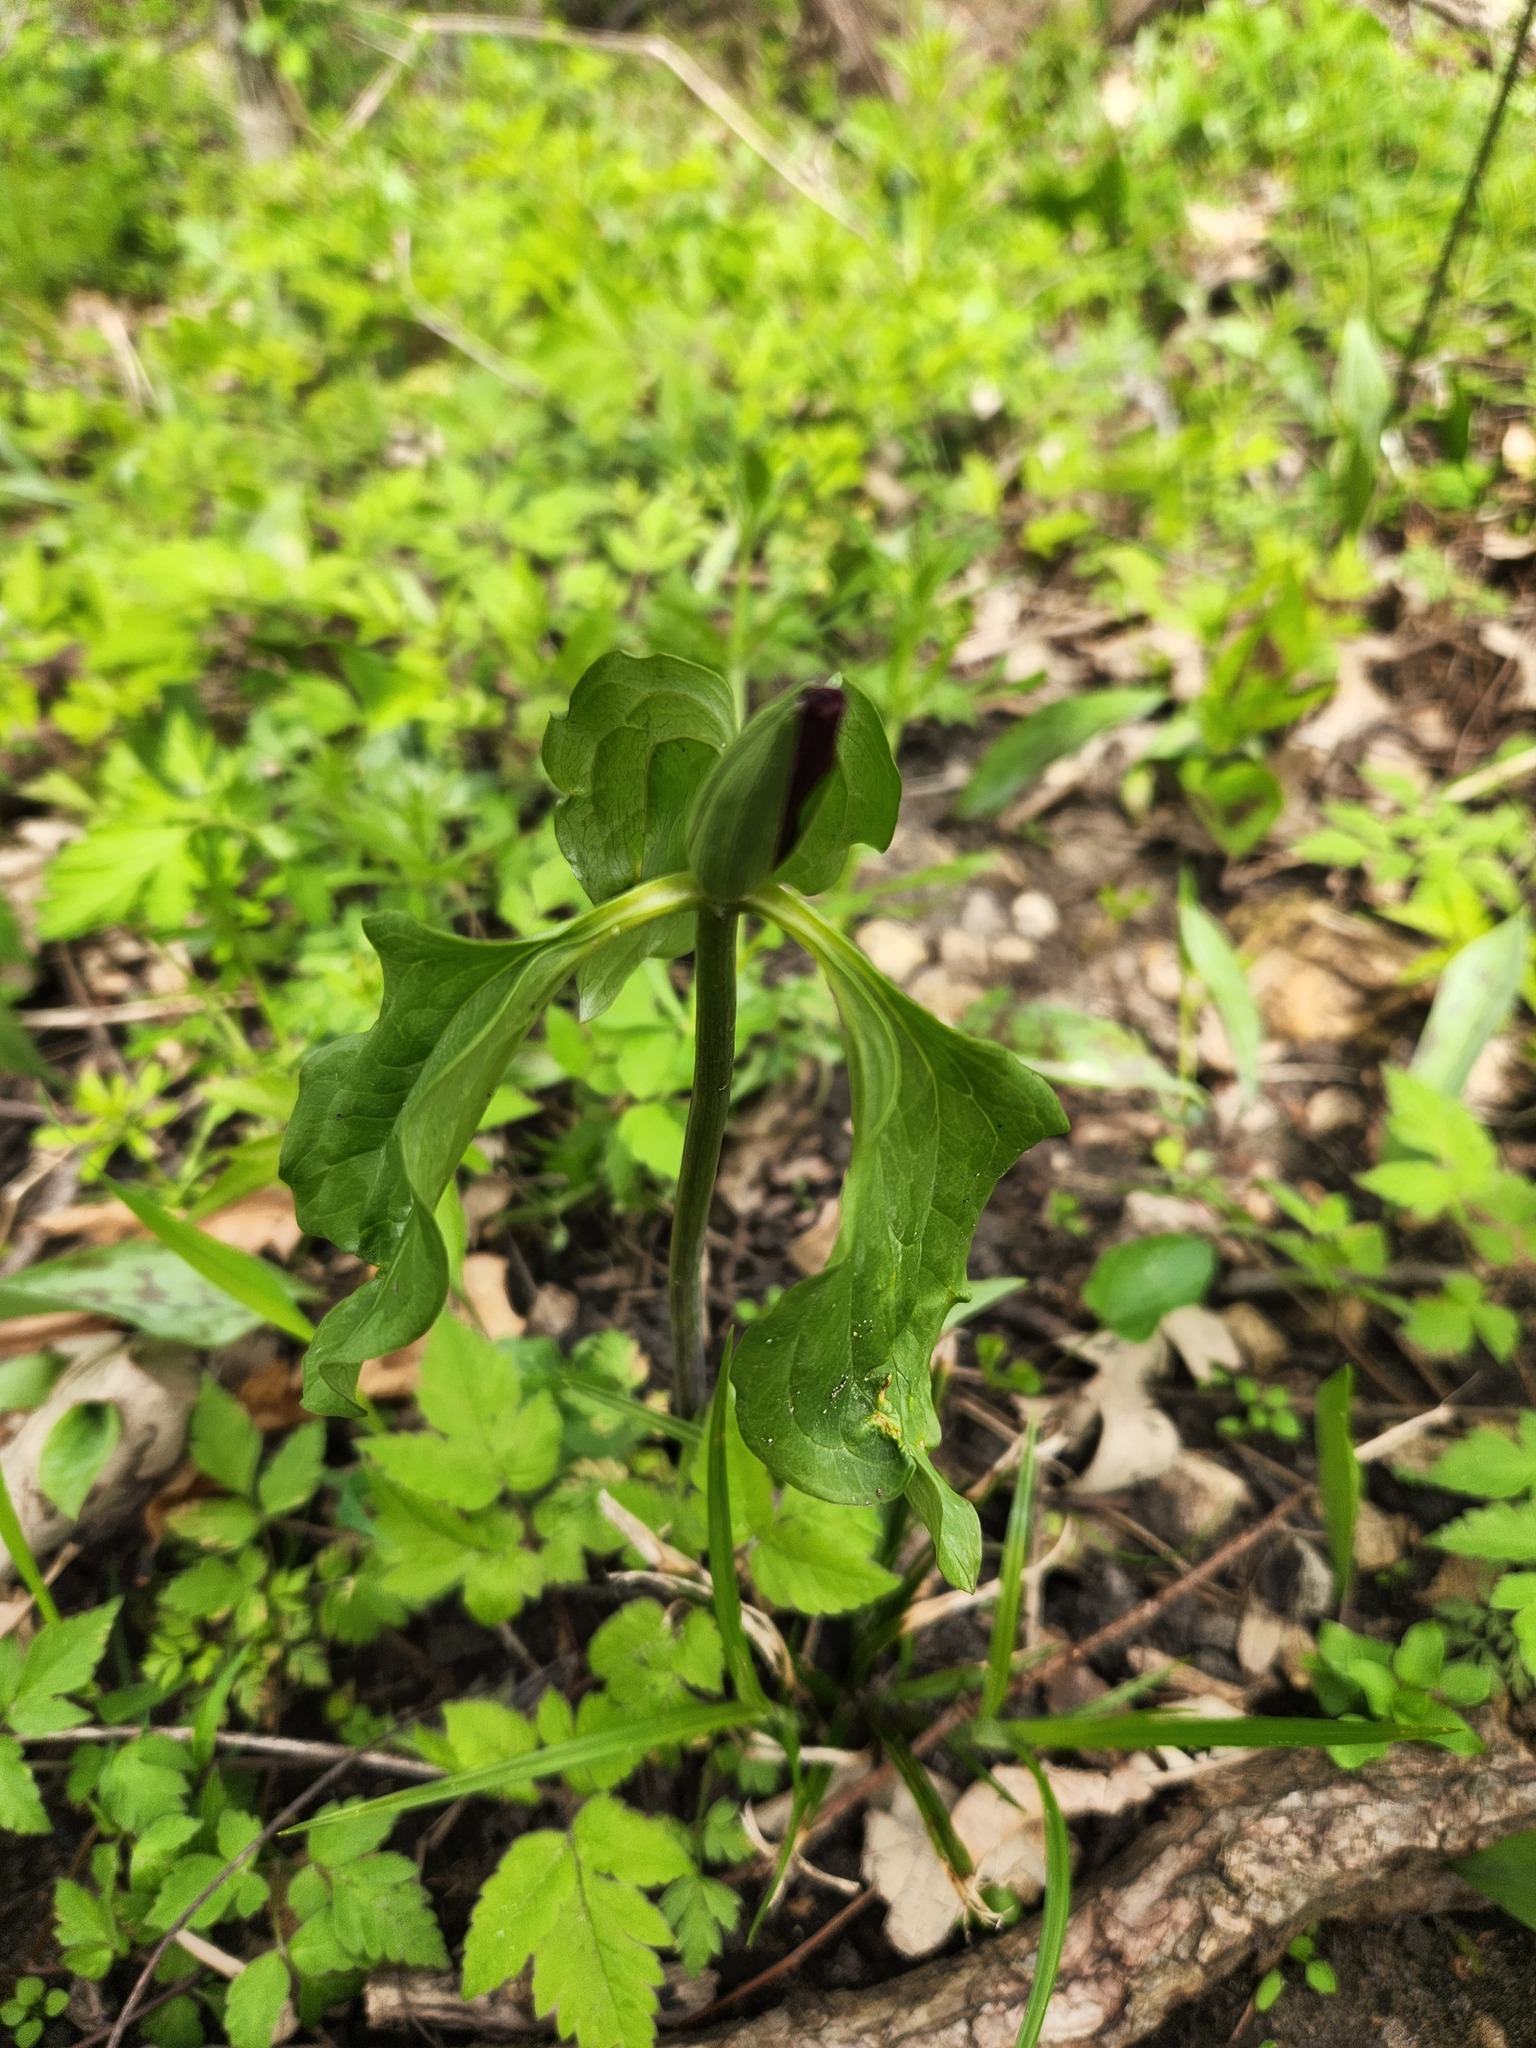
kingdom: Plantae
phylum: Tracheophyta
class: Liliopsida
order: Liliales
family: Melanthiaceae
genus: Trillium
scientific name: Trillium recurvatum
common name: Bloody butcher
